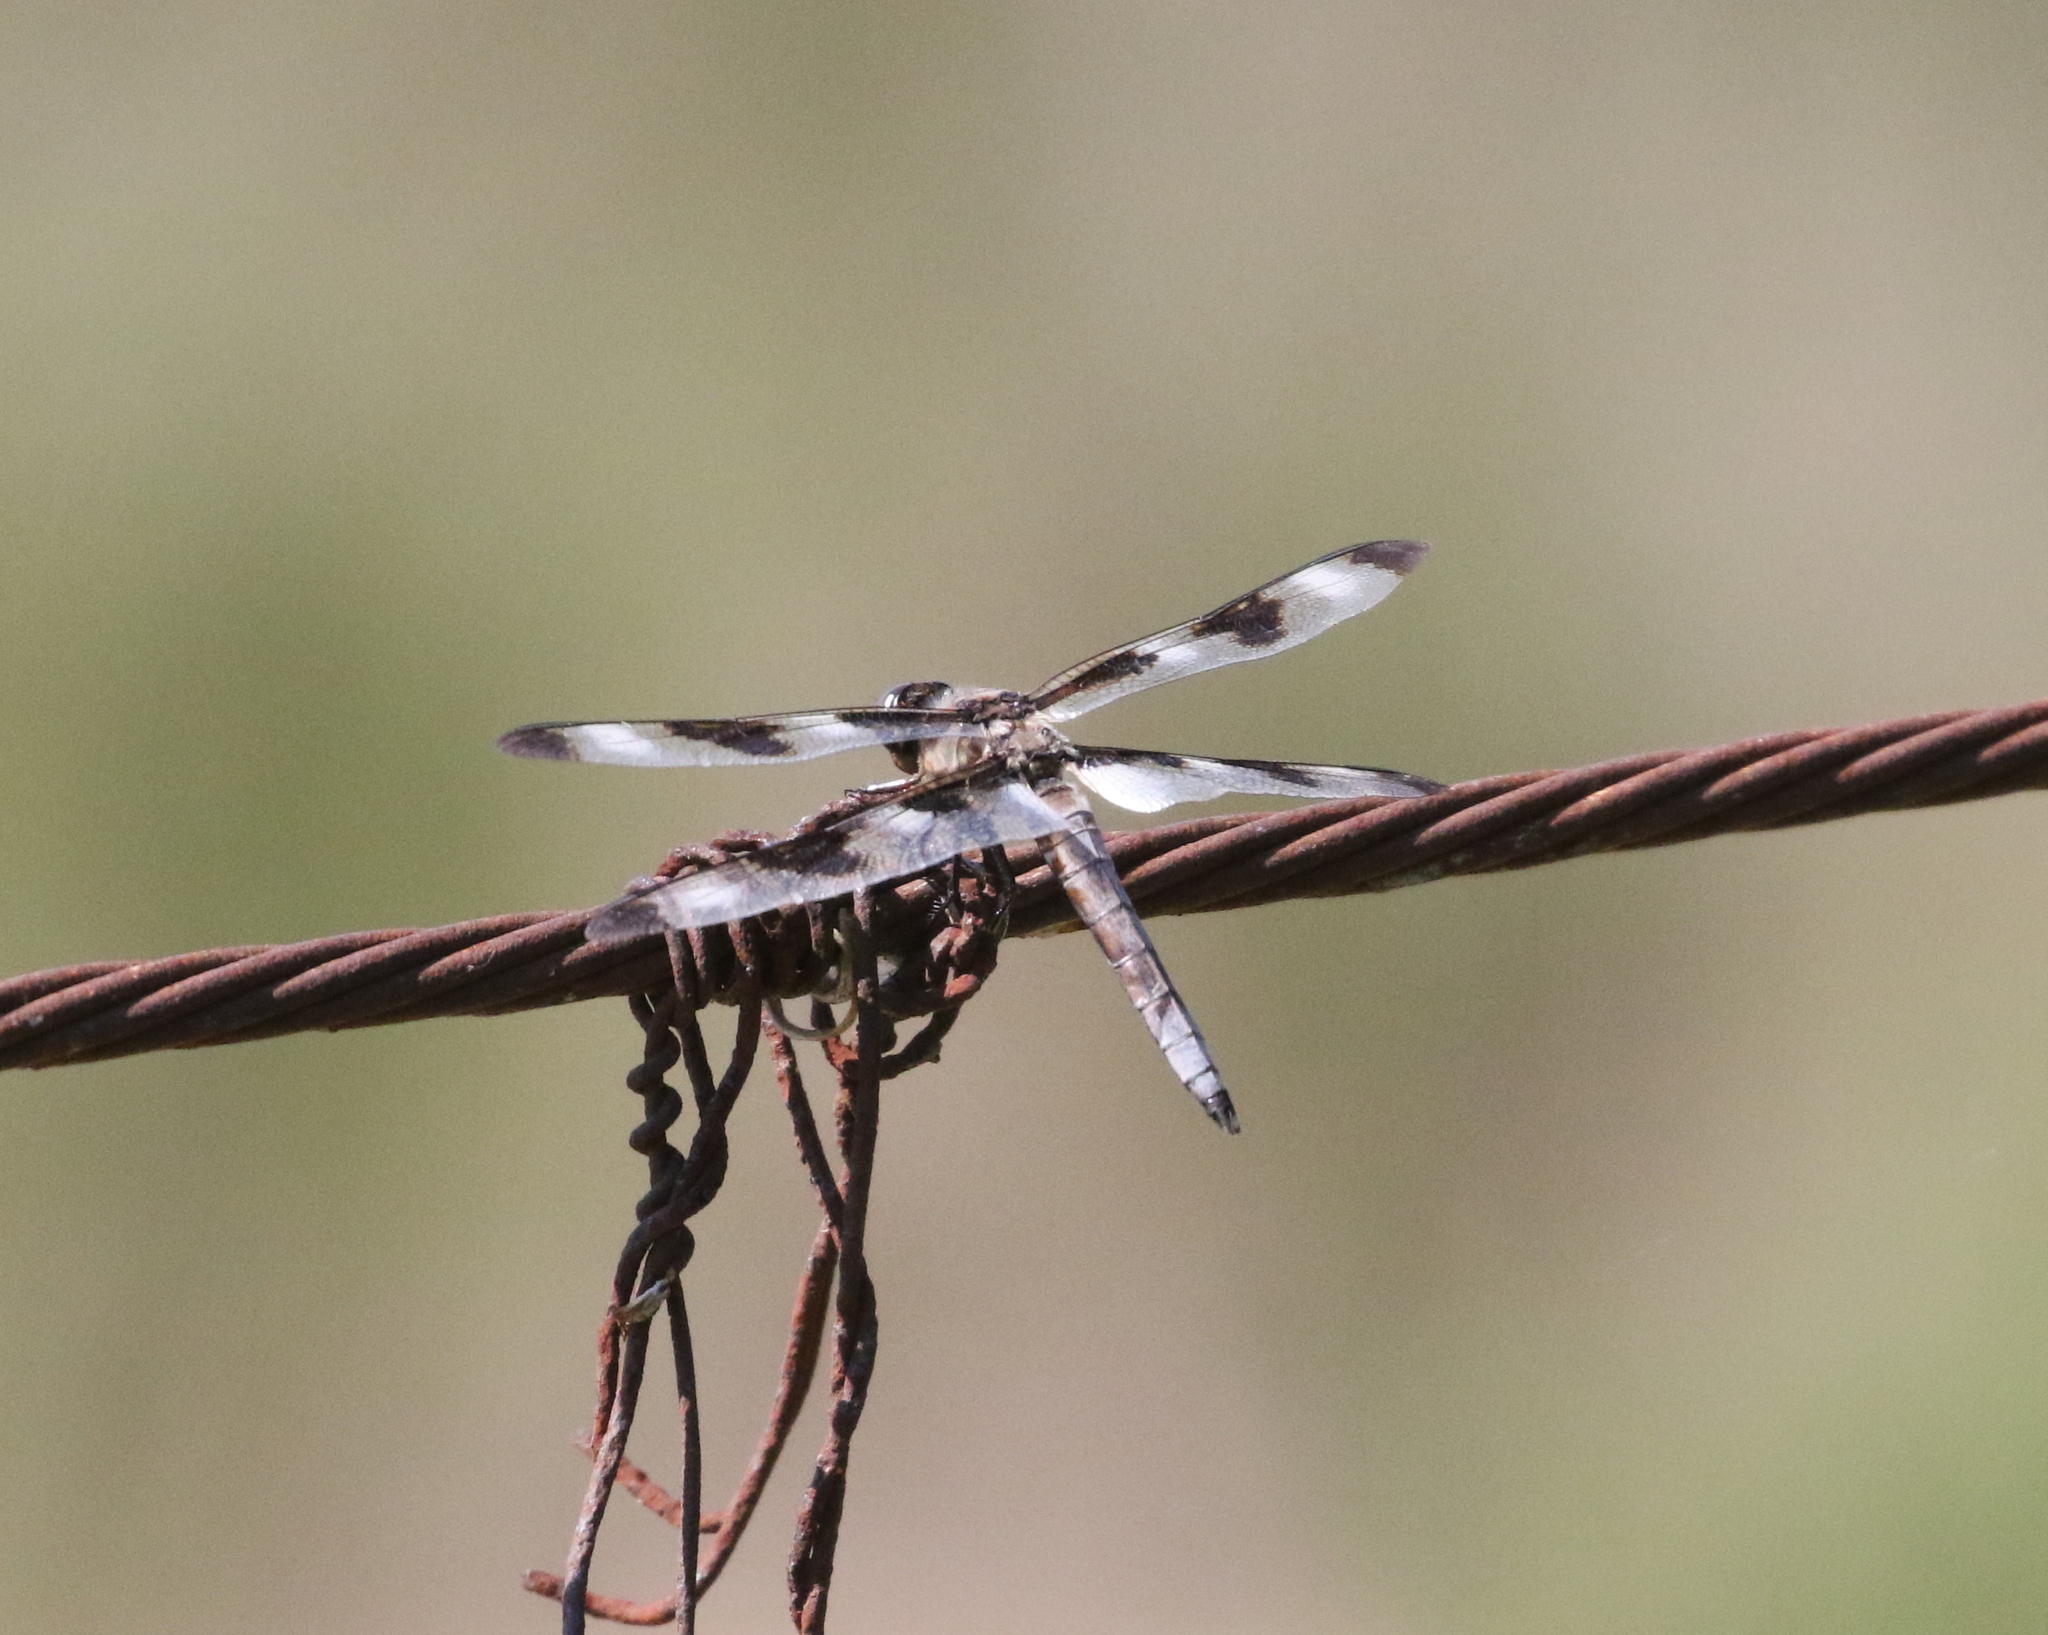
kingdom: Animalia
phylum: Arthropoda
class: Insecta
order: Odonata
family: Libellulidae
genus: Libellula
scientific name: Libellula pulchella
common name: Twelve-spotted skimmer
